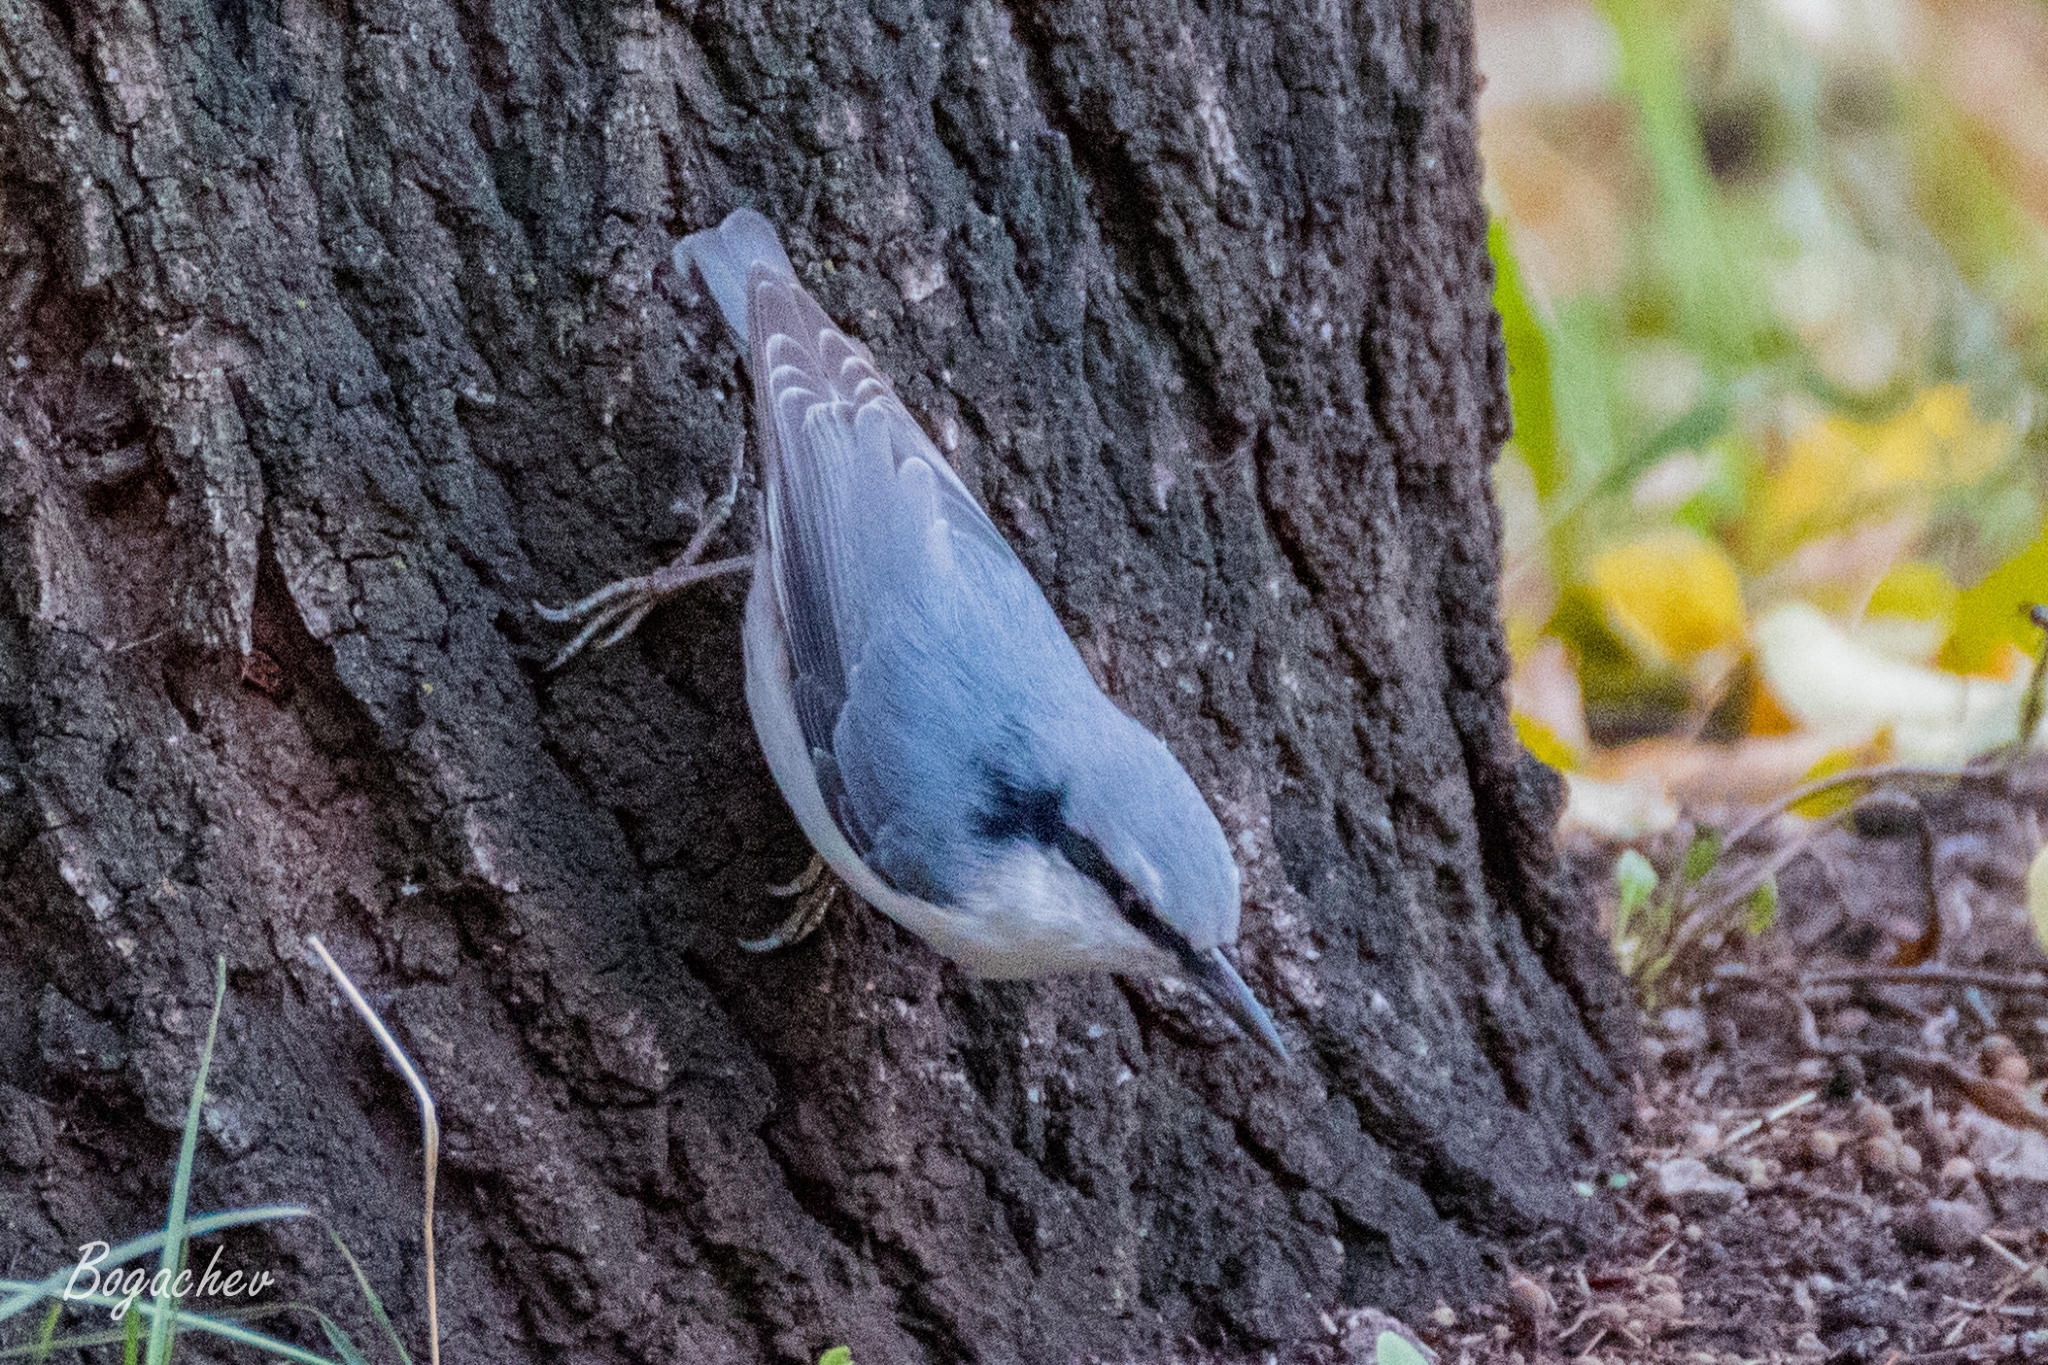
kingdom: Animalia
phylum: Chordata
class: Aves
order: Passeriformes
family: Sittidae
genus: Sitta
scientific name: Sitta europaea
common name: Eurasian nuthatch
